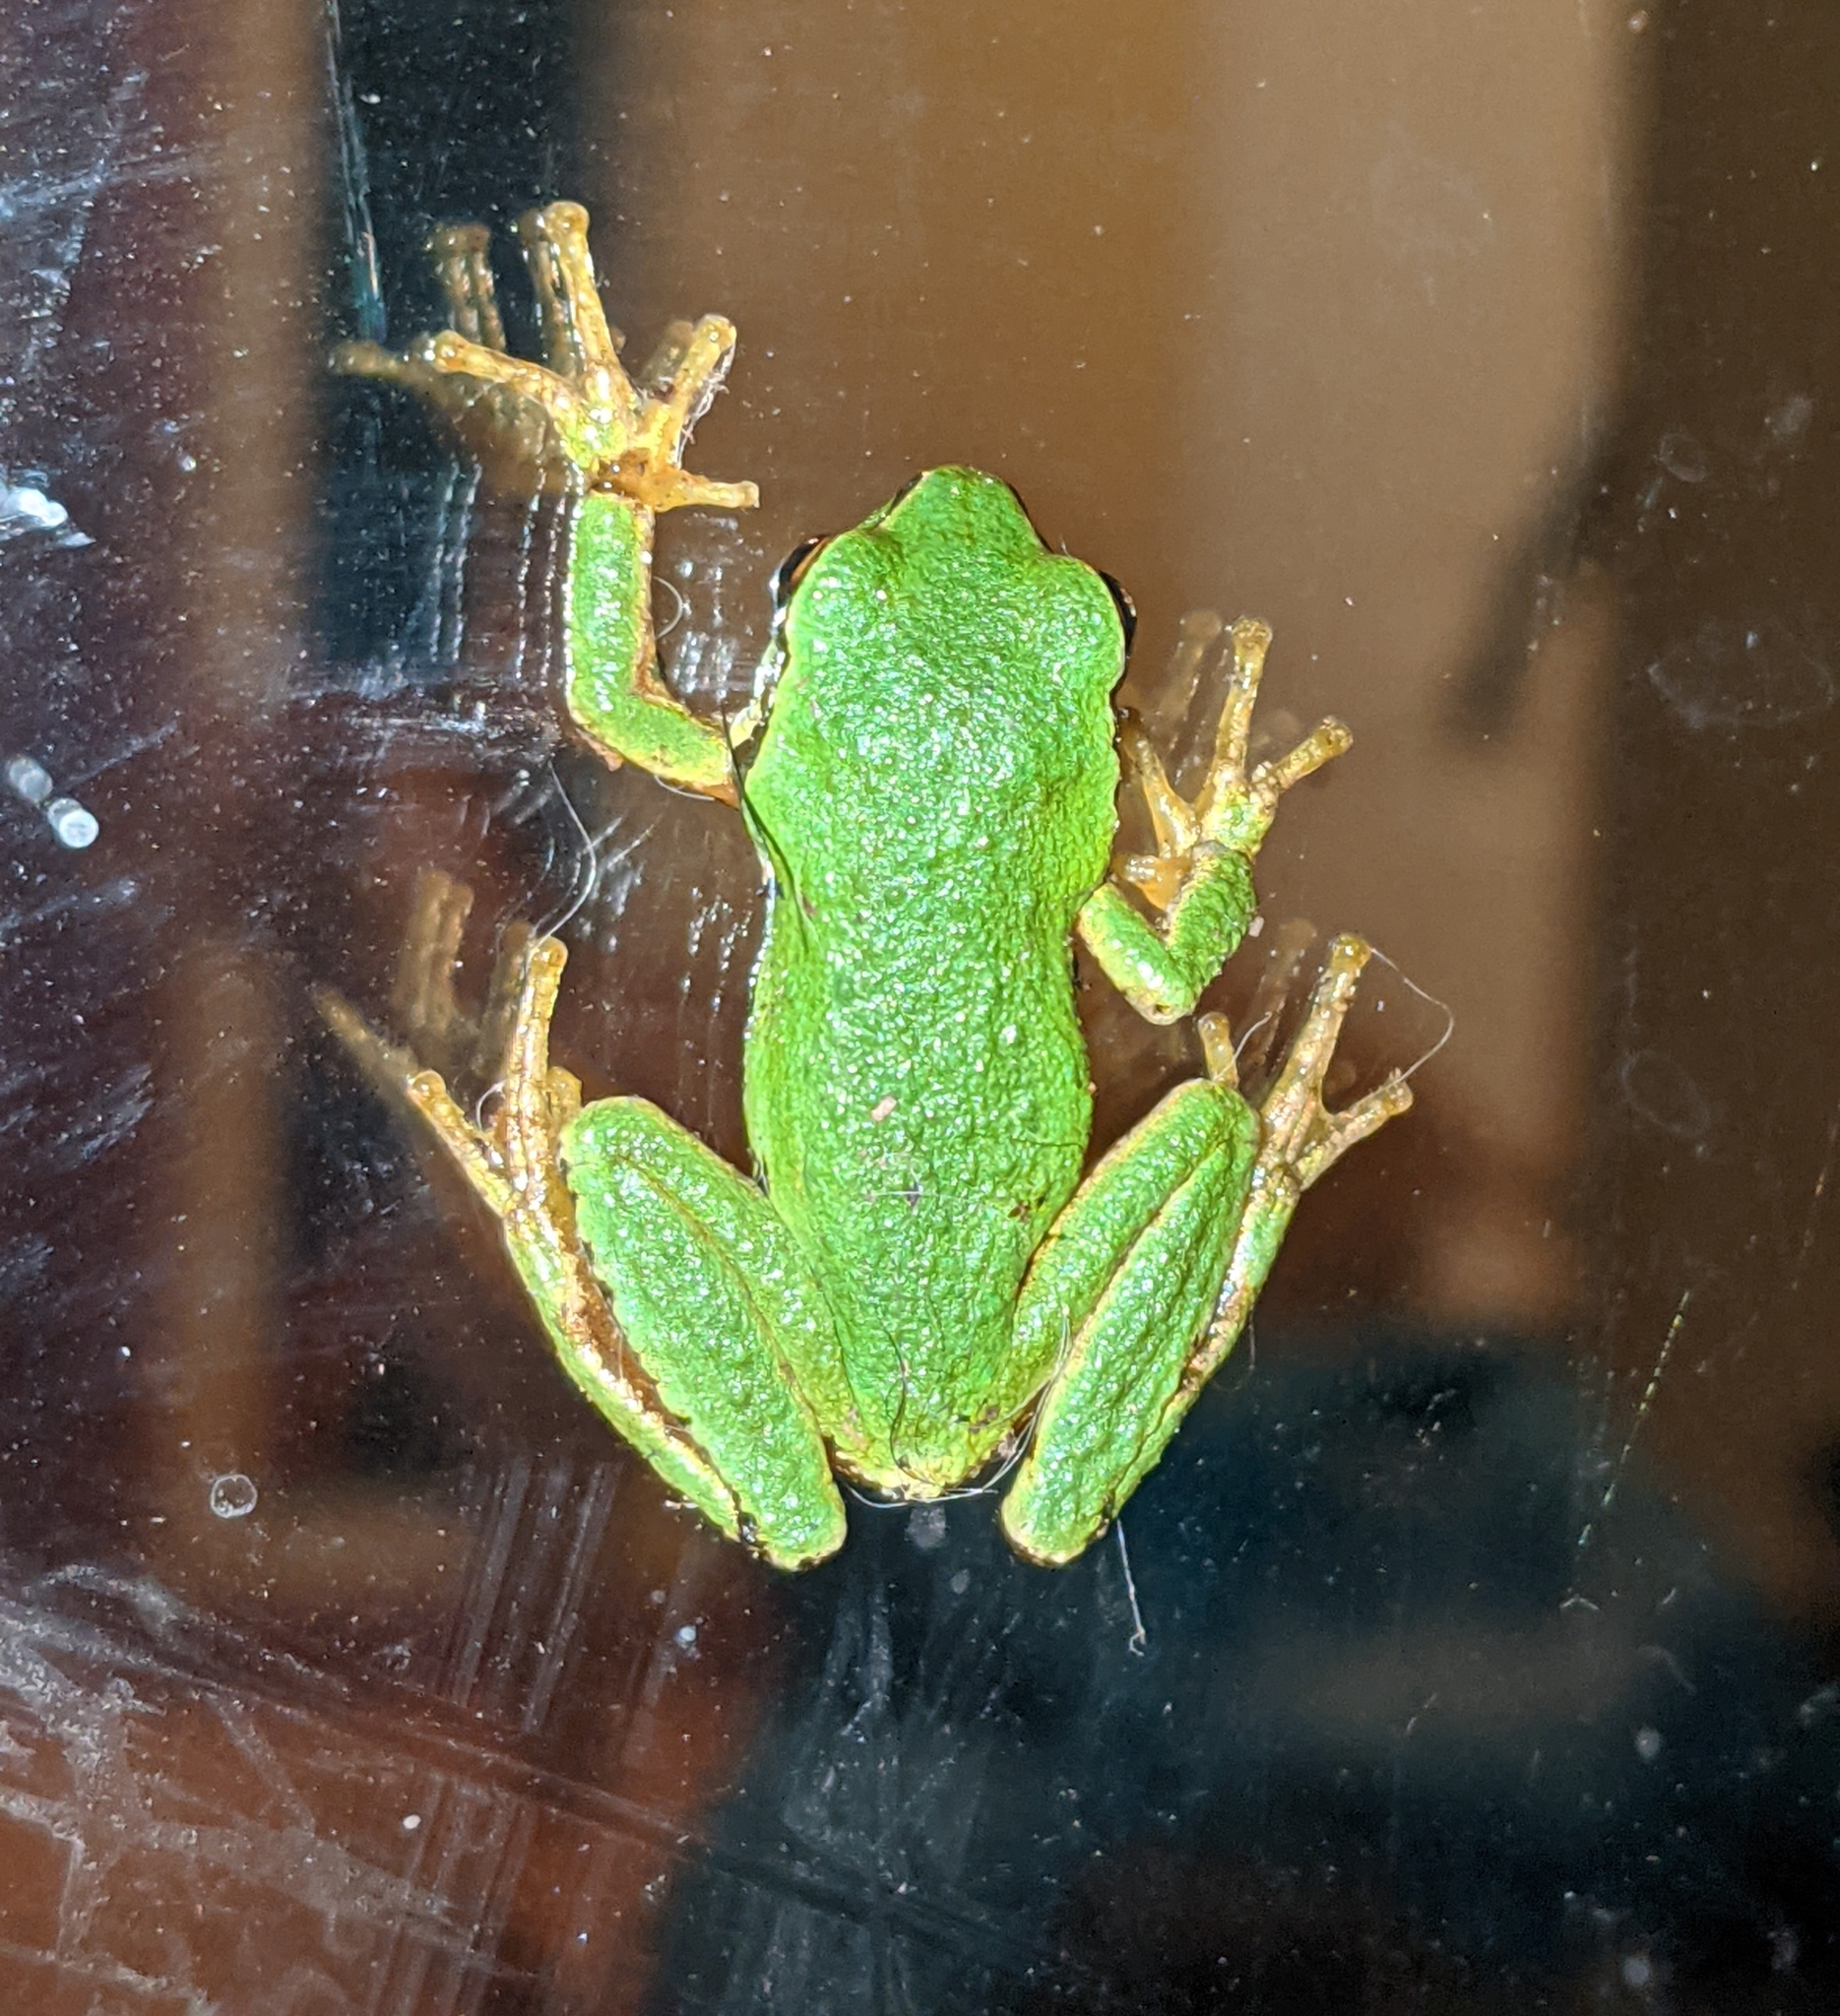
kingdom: Animalia
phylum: Chordata
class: Amphibia
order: Anura
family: Hylidae
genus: Pseudacris
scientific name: Pseudacris regilla
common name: Pacific chorus frog
